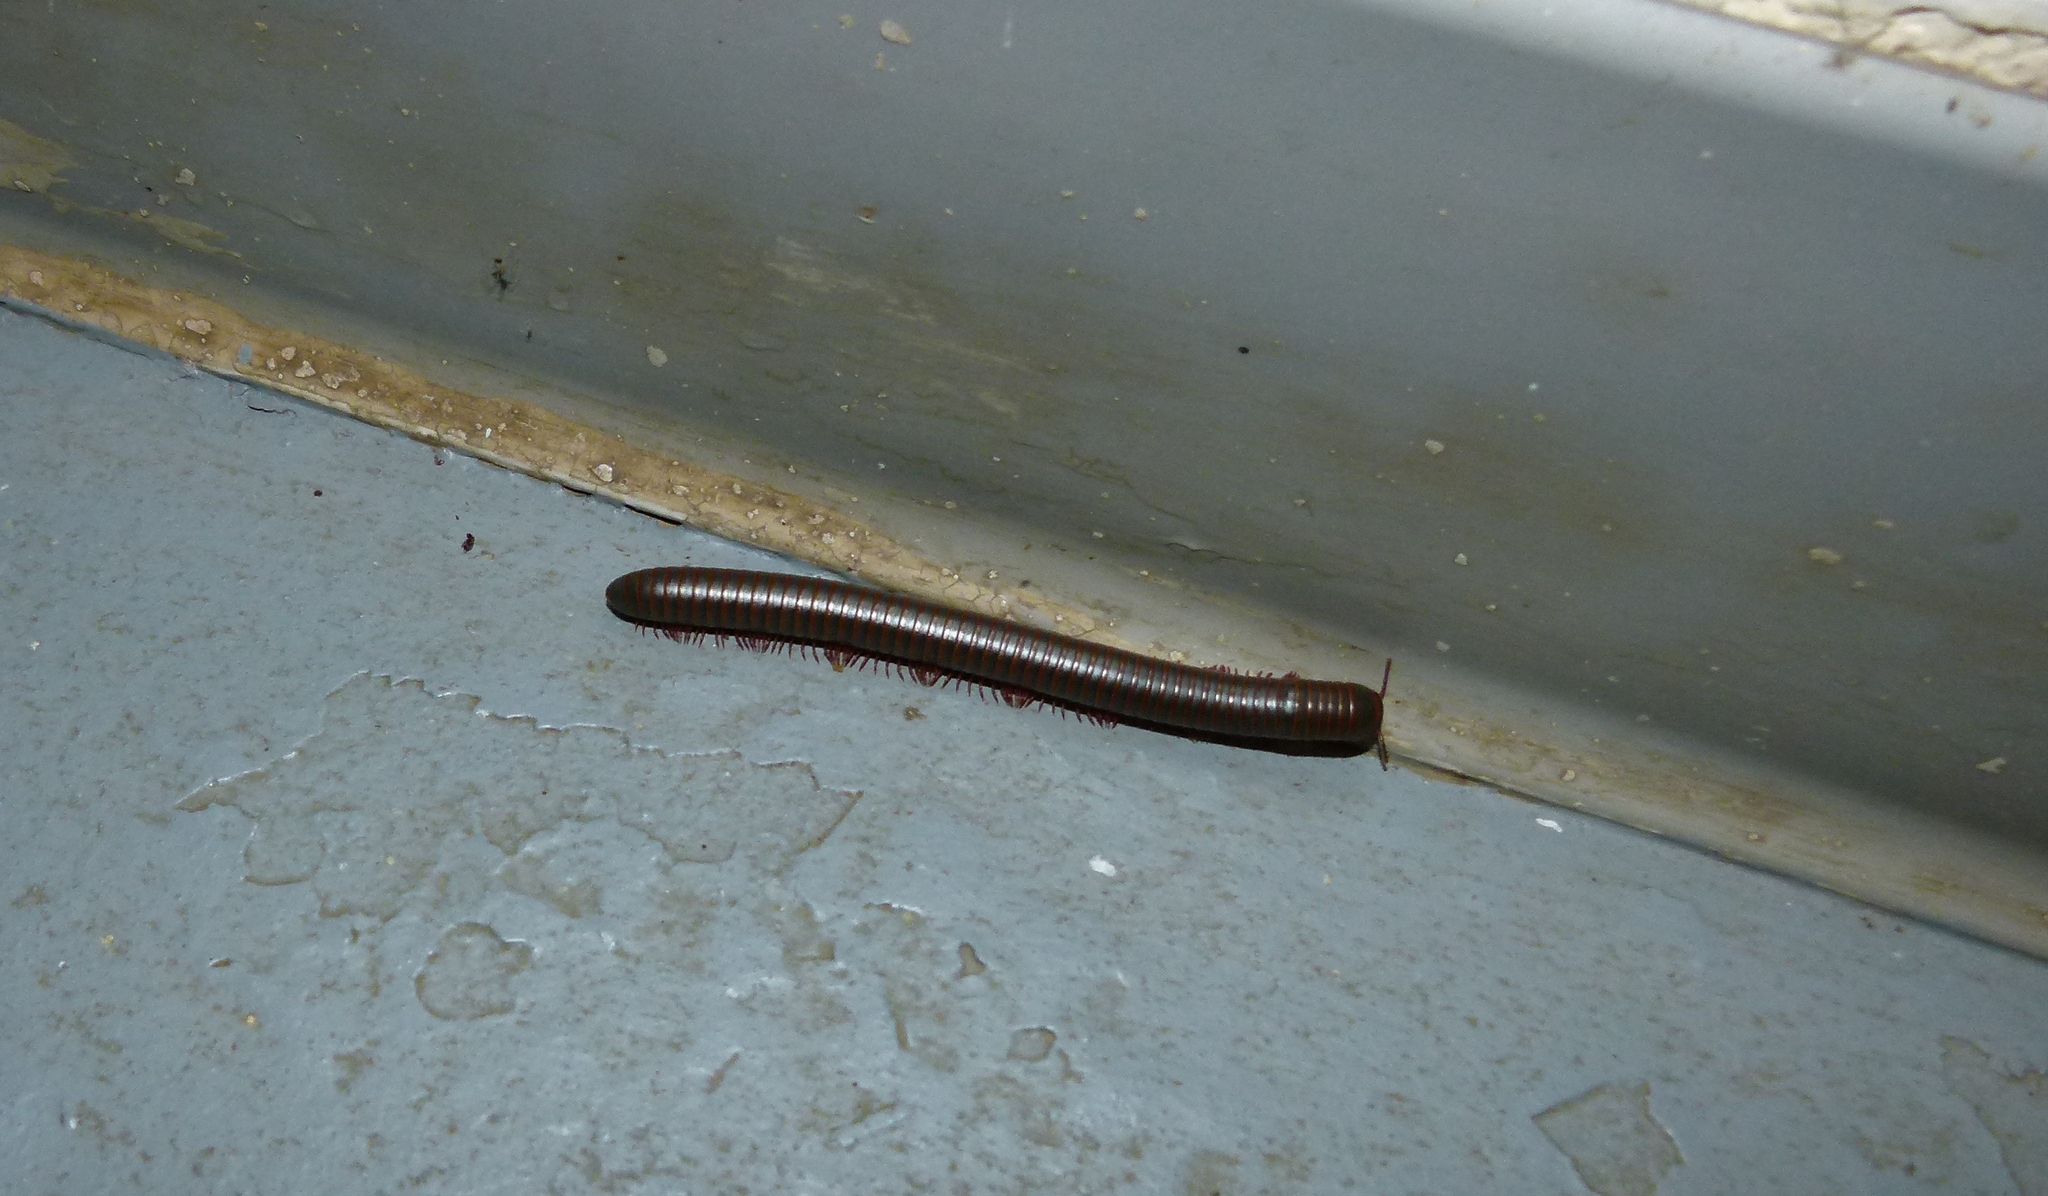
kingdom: Animalia
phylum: Arthropoda
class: Diplopoda
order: Spirobolida
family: Spirobolidae
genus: Narceus
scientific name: Narceus
